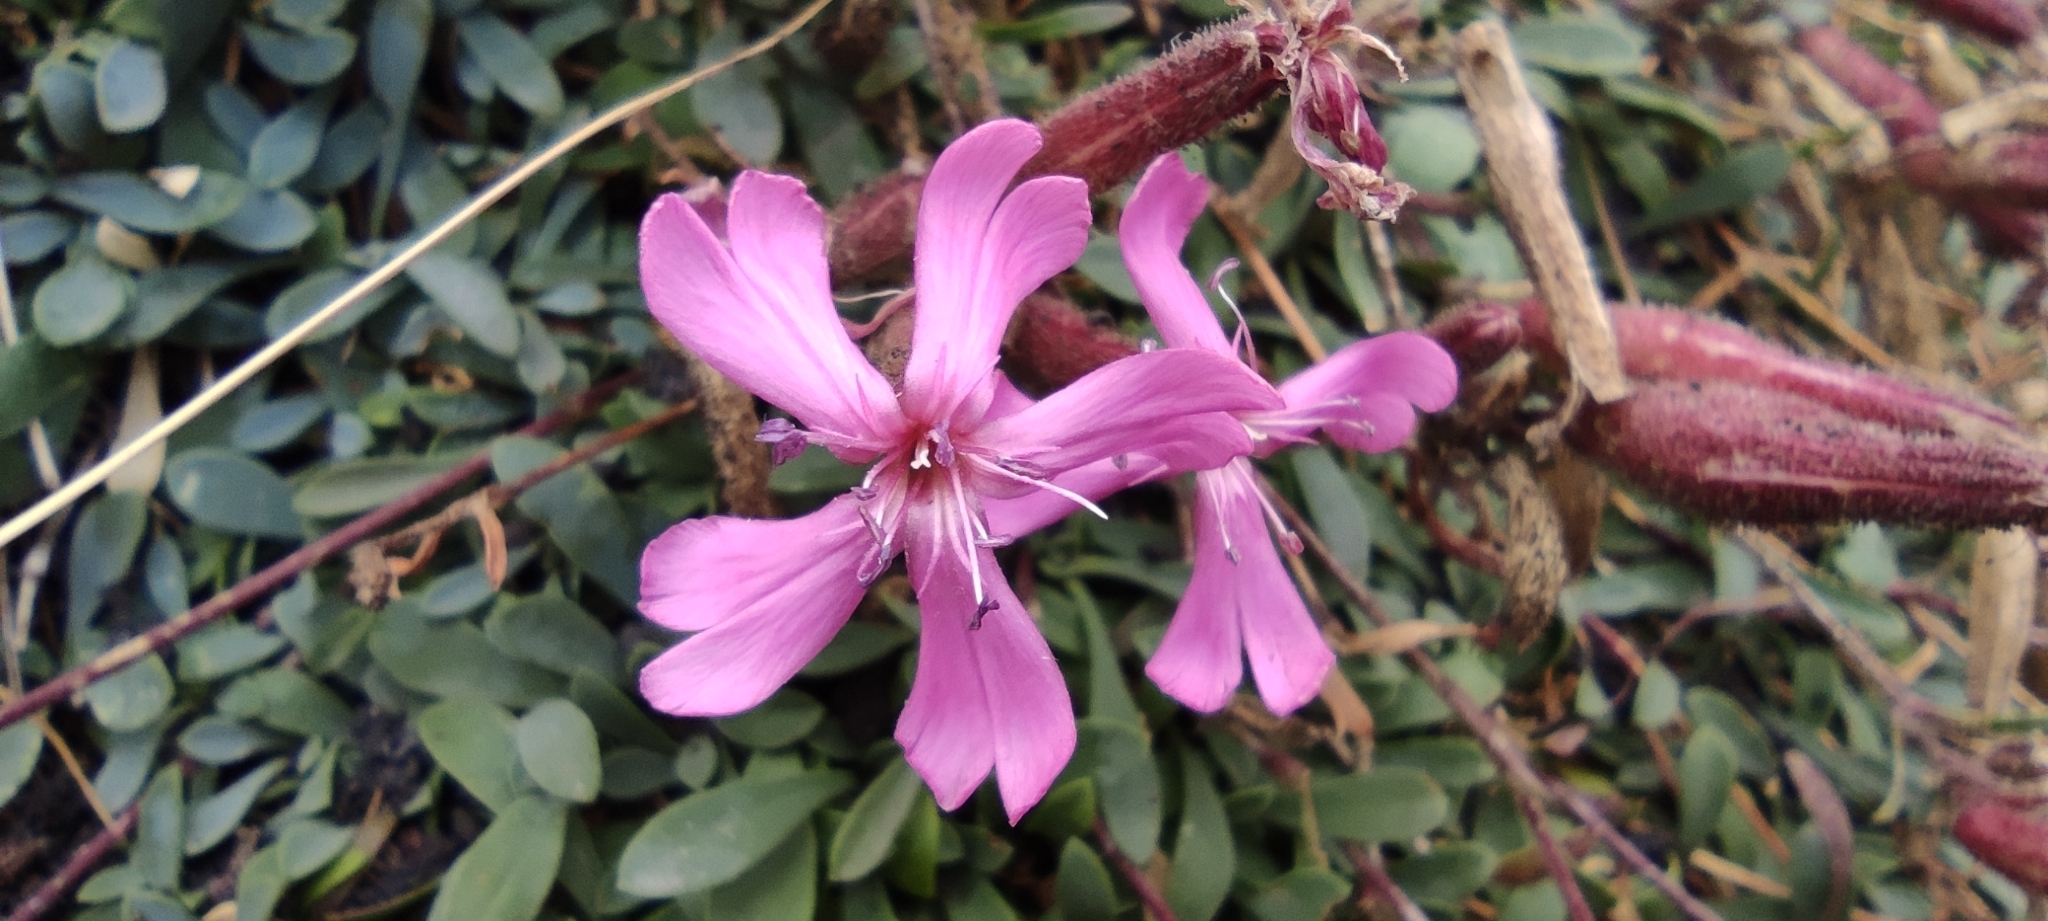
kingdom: Plantae
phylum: Tracheophyta
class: Magnoliopsida
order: Caryophyllales
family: Caryophyllaceae
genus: Saponaria
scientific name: Saponaria sicula
